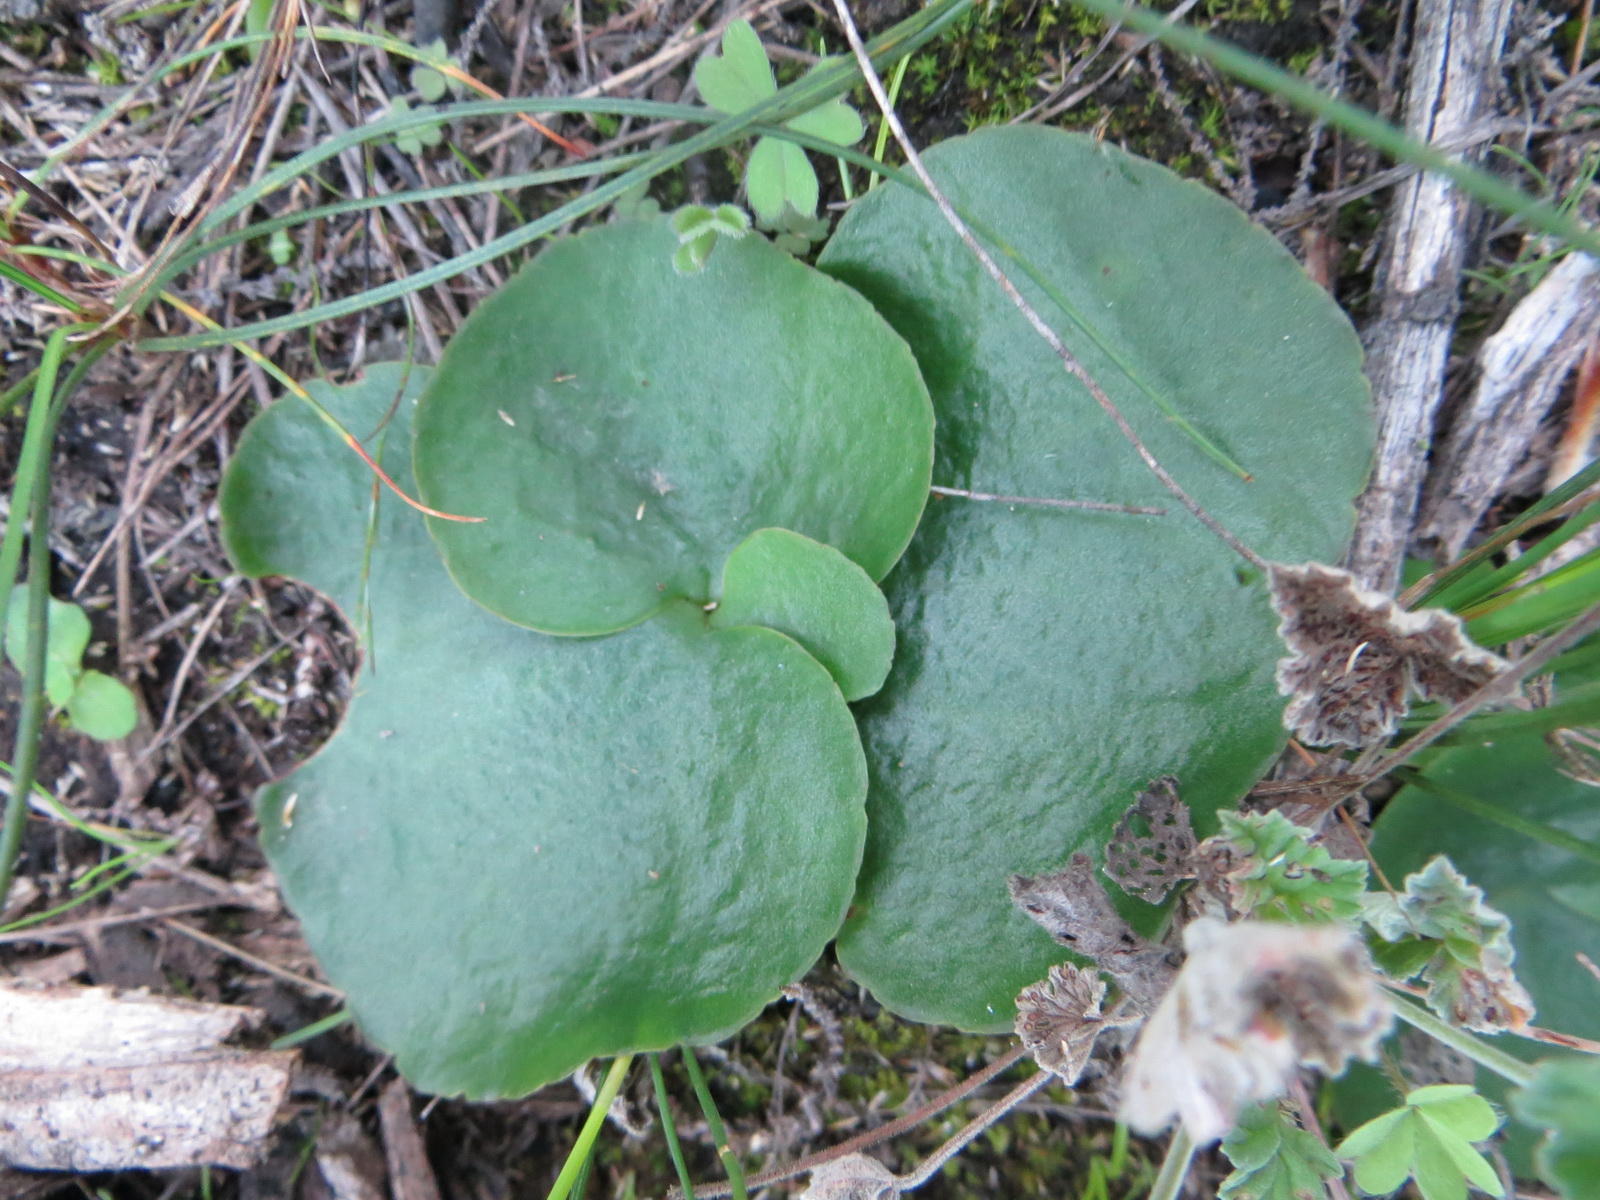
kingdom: Plantae
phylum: Tracheophyta
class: Magnoliopsida
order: Saxifragales
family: Crassulaceae
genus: Crassula
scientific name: Crassula saxifraga
